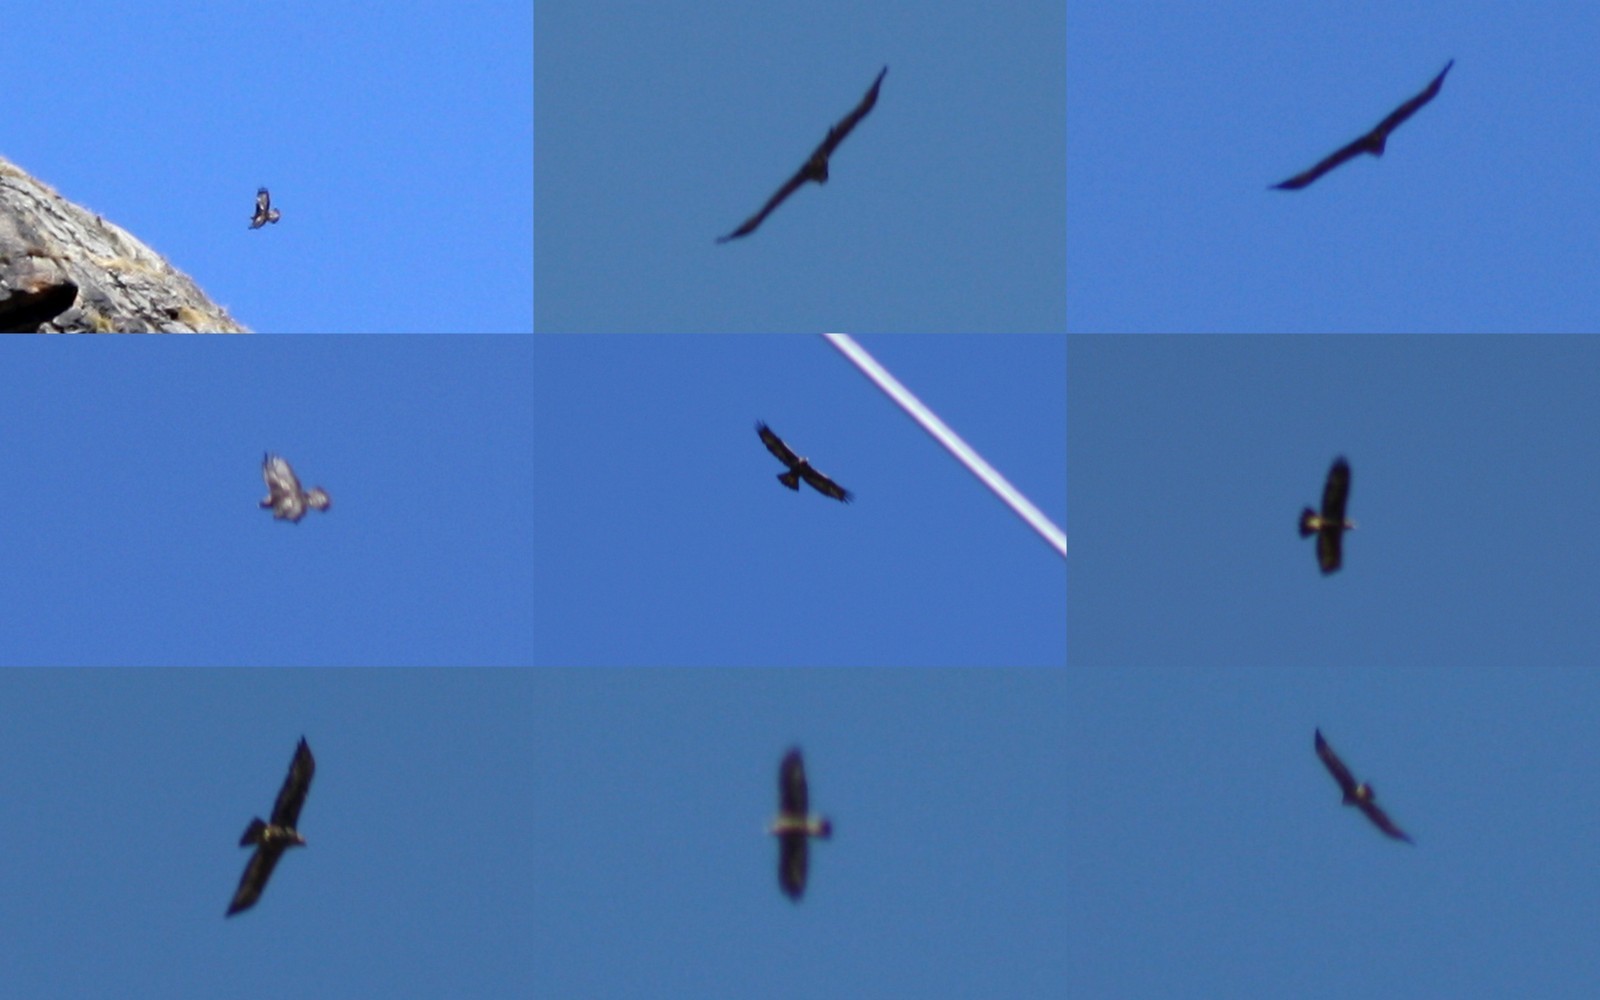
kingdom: Animalia
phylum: Chordata
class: Aves
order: Accipitriformes
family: Accipitridae
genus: Aquila
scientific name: Aquila chrysaetos
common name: Golden eagle
